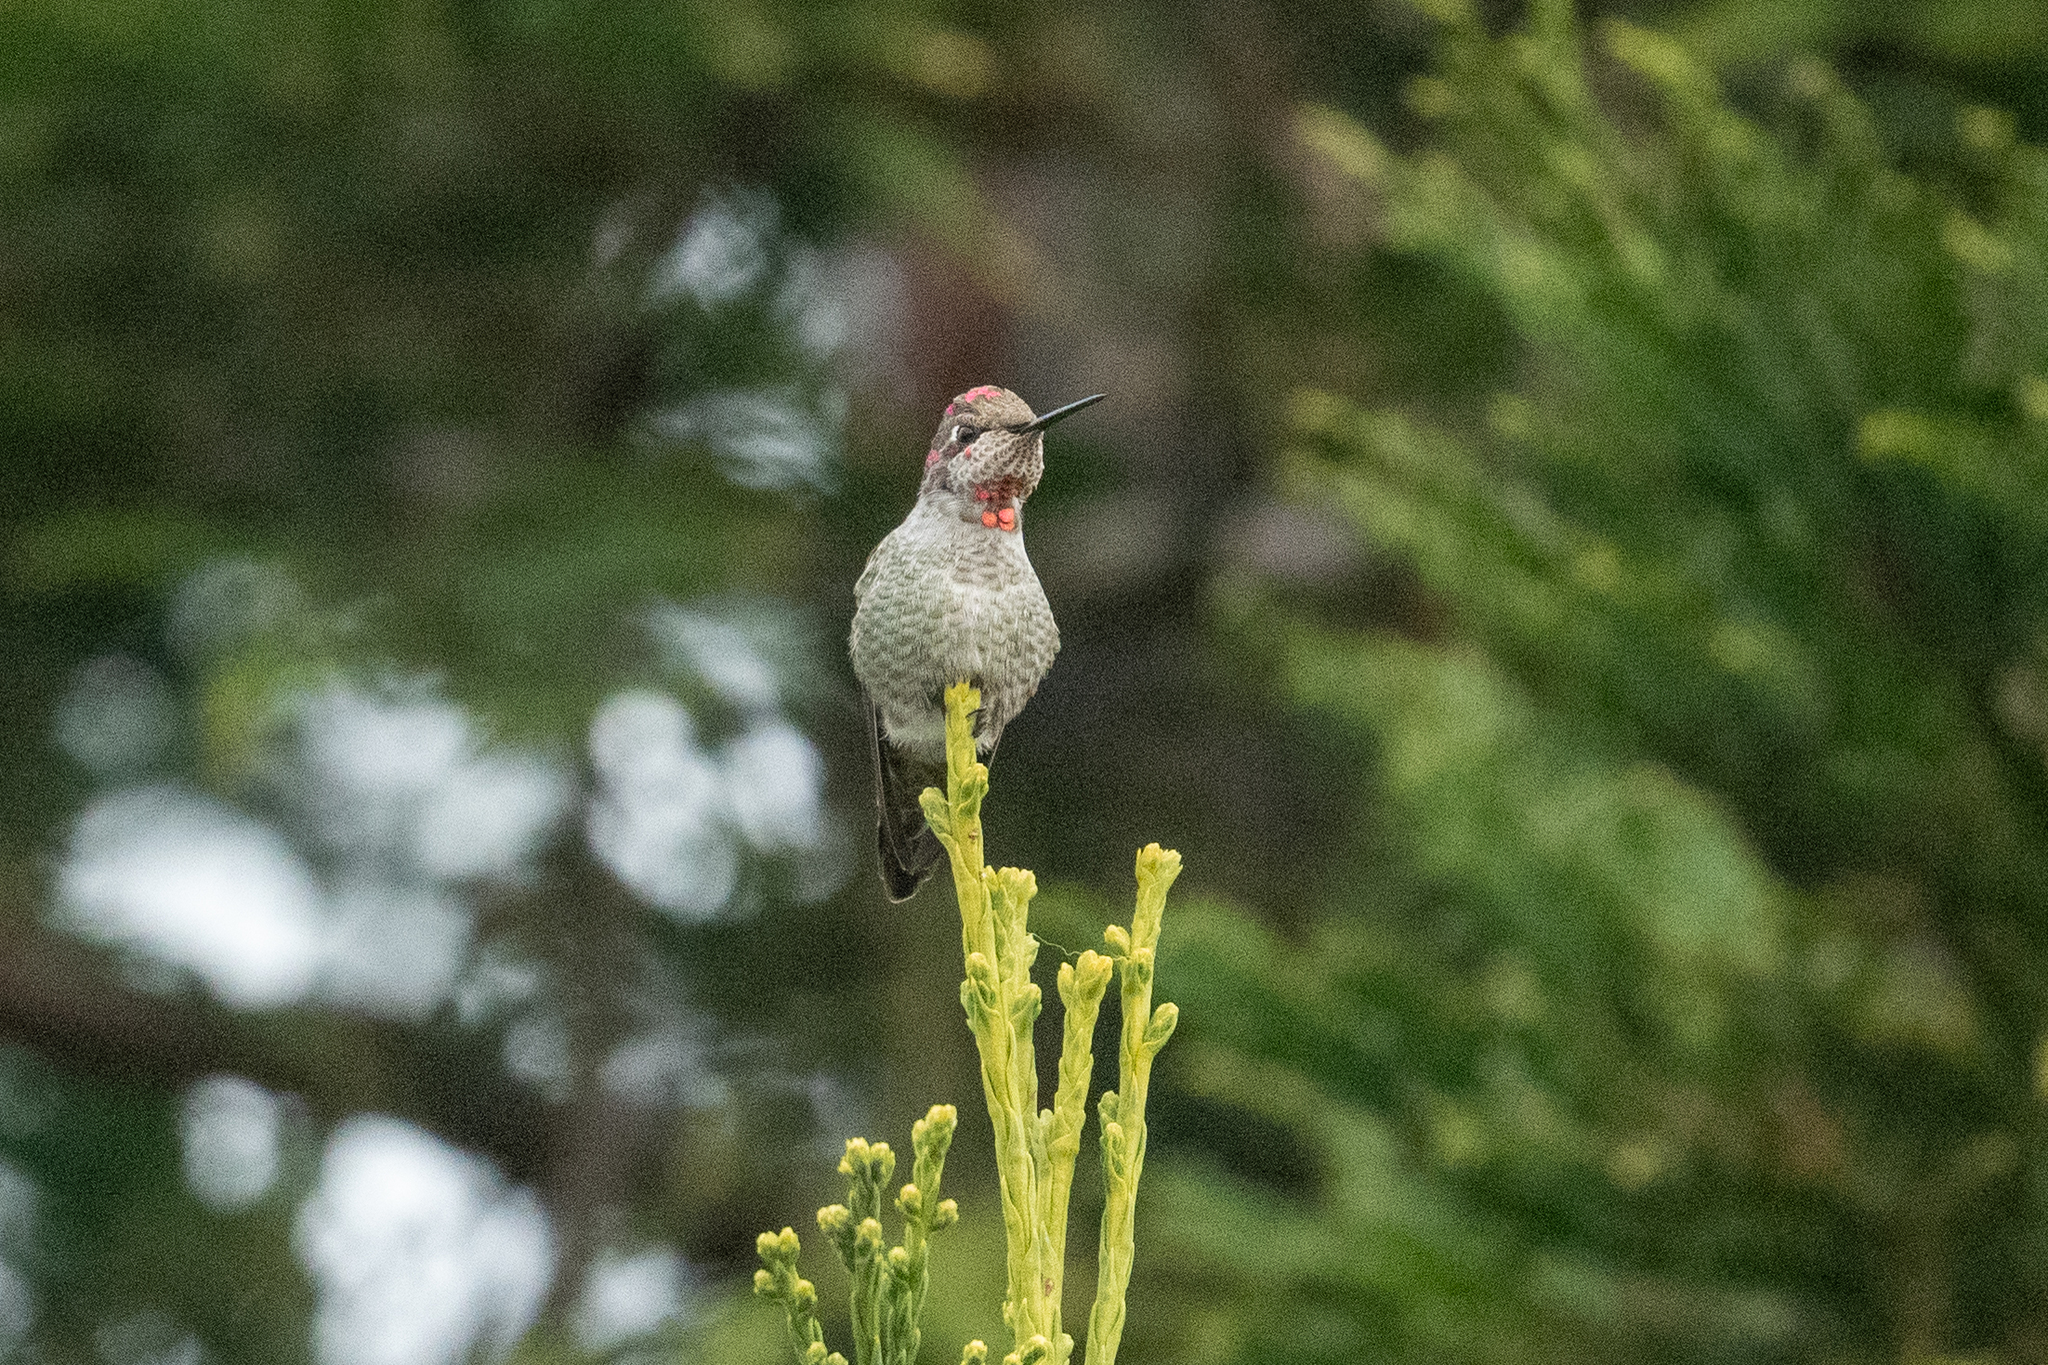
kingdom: Animalia
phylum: Chordata
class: Aves
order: Apodiformes
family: Trochilidae
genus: Calypte
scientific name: Calypte anna
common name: Anna's hummingbird
